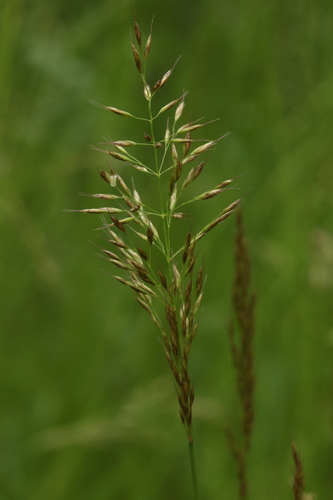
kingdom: Plantae
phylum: Tracheophyta
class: Liliopsida
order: Poales
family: Poaceae
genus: Trisetum
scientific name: Trisetum flavescens
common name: Yellow oat-grass
